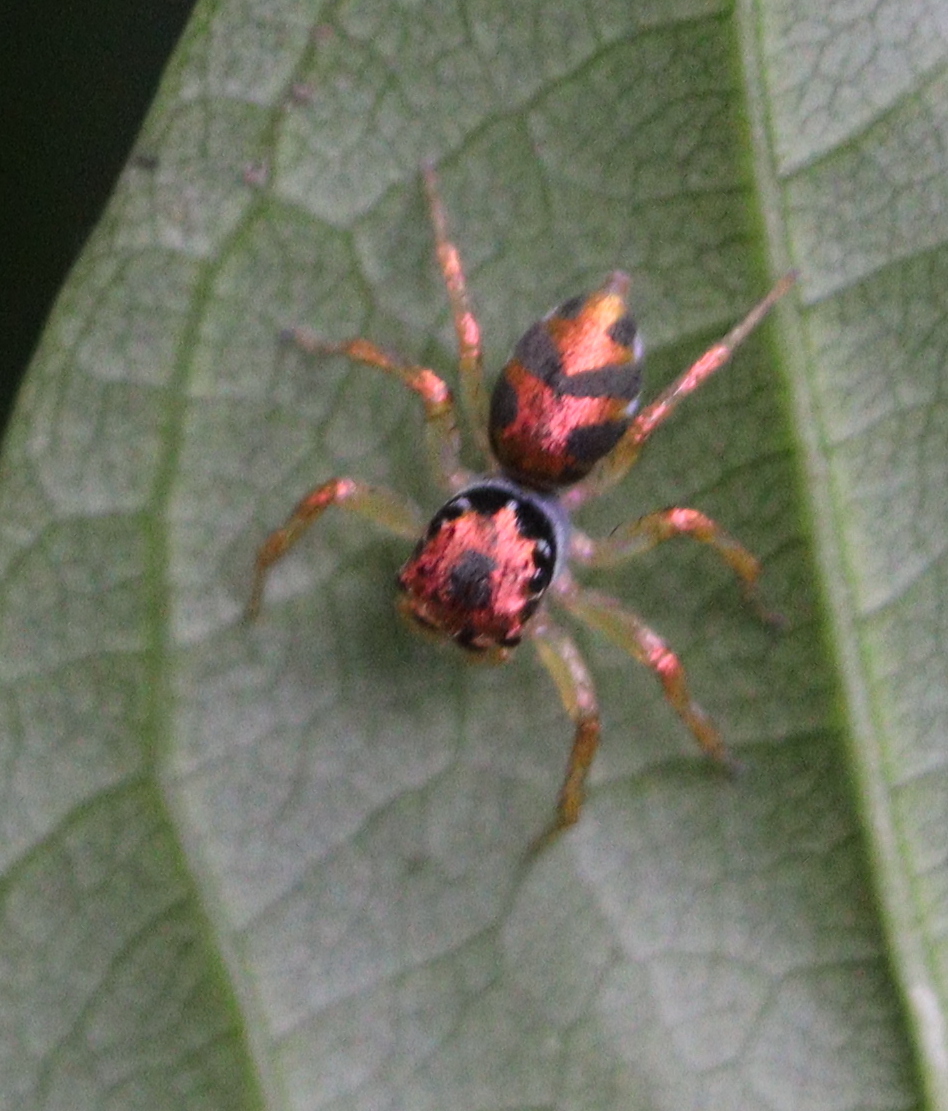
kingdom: Animalia
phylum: Arthropoda
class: Arachnida
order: Araneae
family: Salticidae
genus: Cytaea
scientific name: Cytaea haematica
